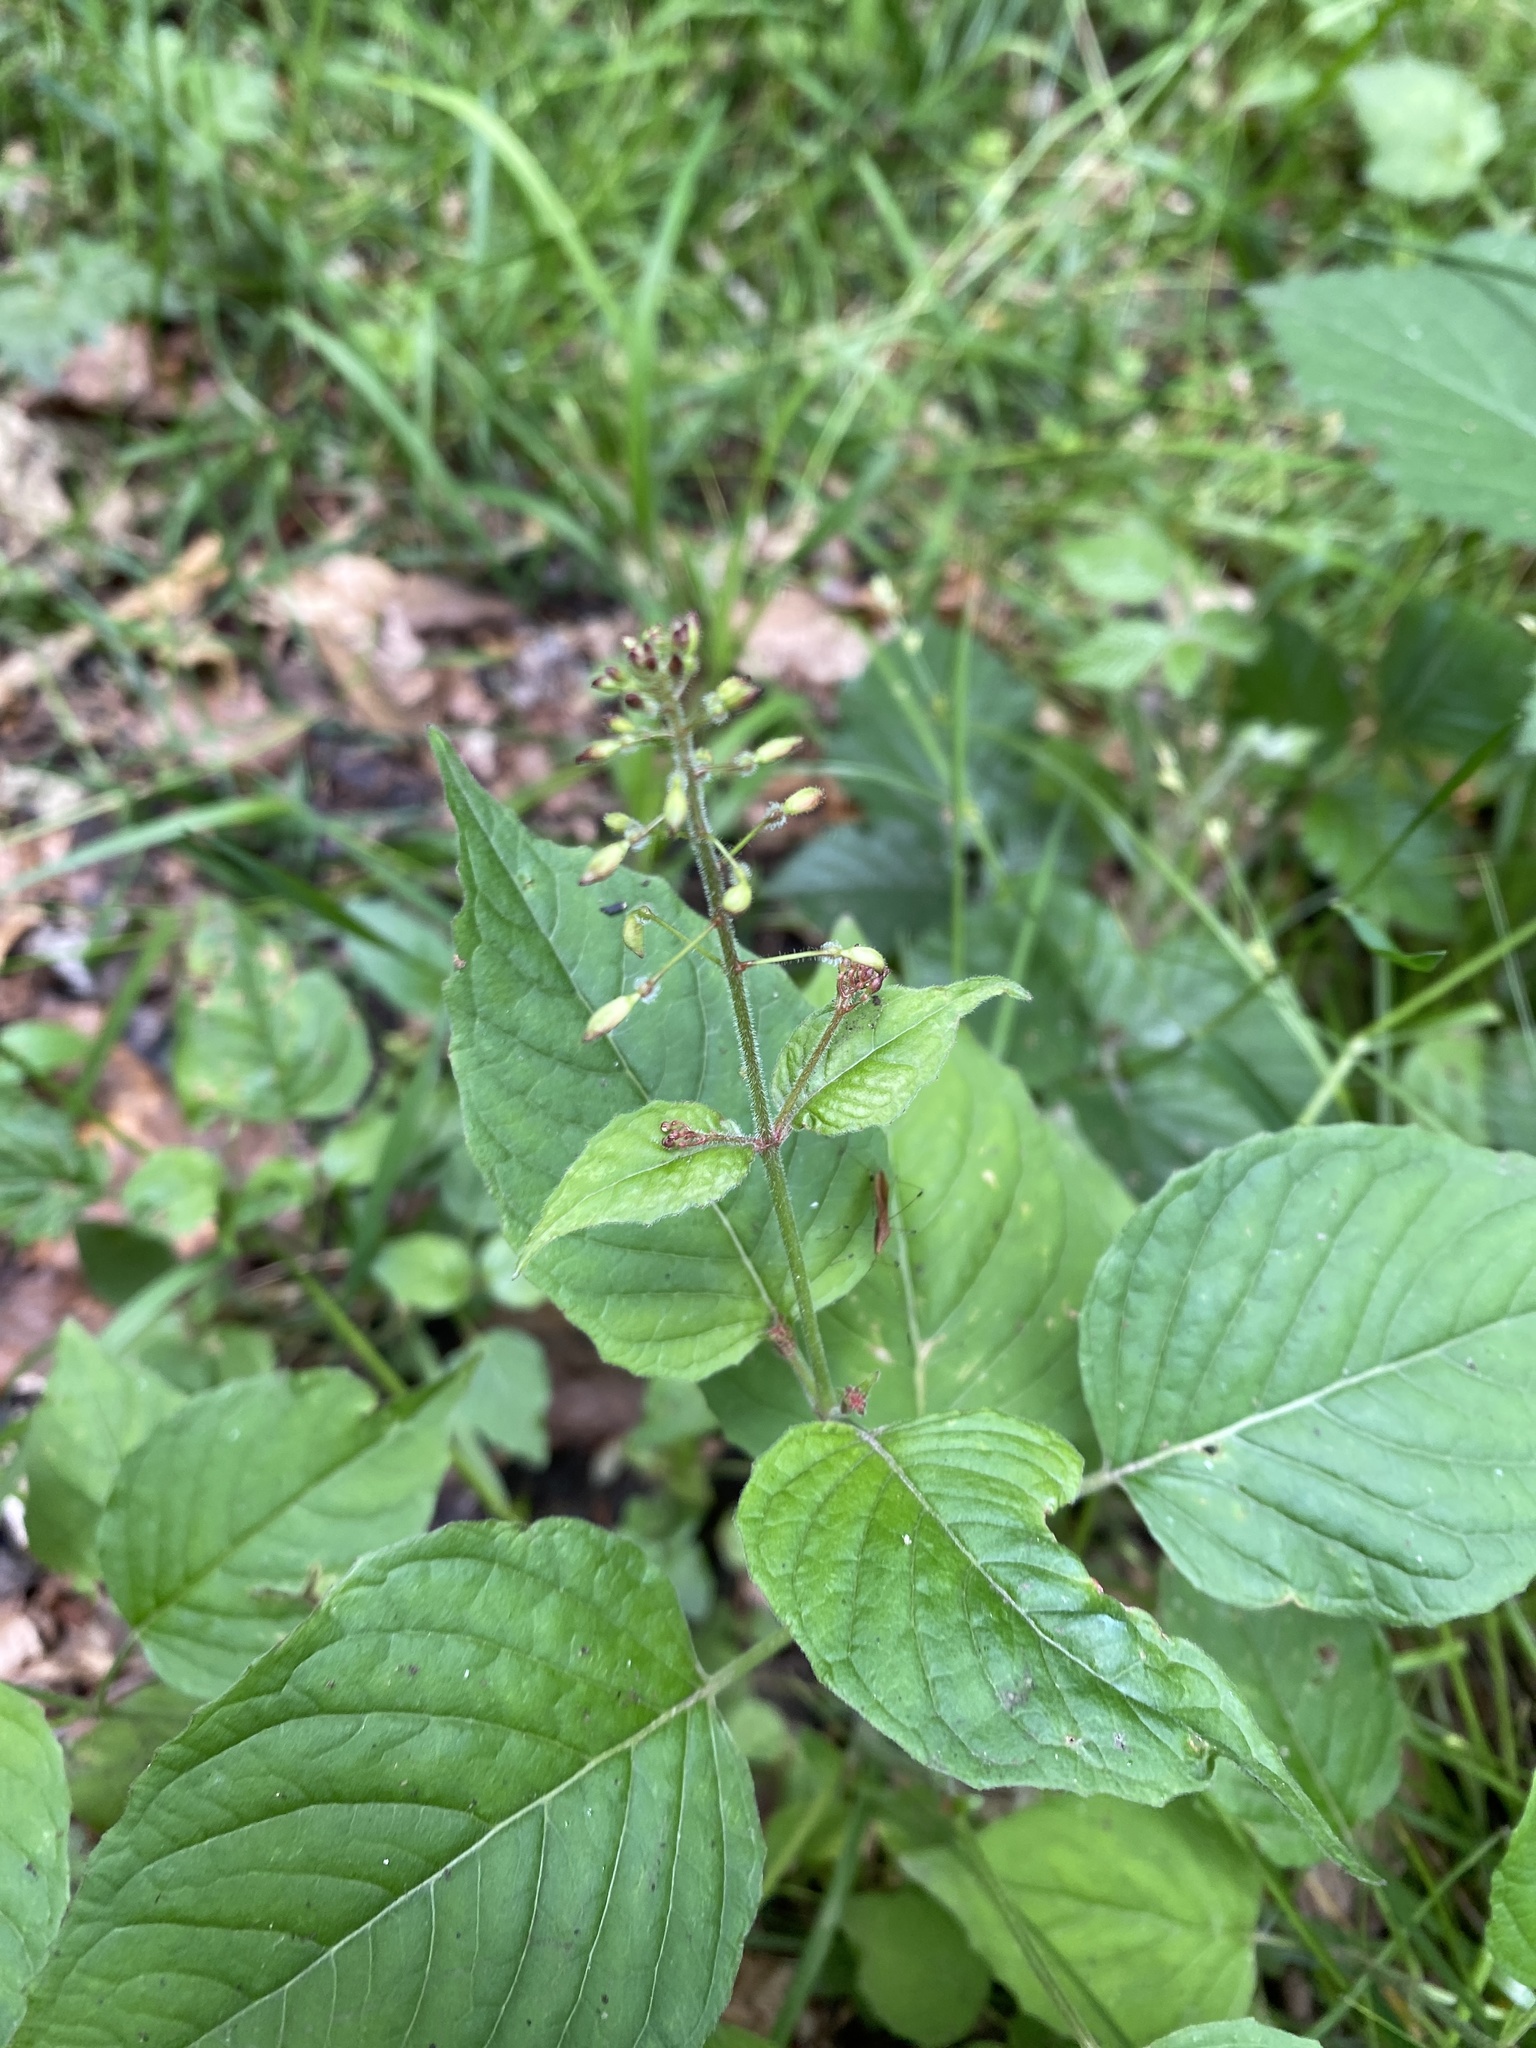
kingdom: Plantae
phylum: Tracheophyta
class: Magnoliopsida
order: Myrtales
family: Onagraceae
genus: Circaea
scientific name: Circaea lutetiana
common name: Enchanter's-nightshade
